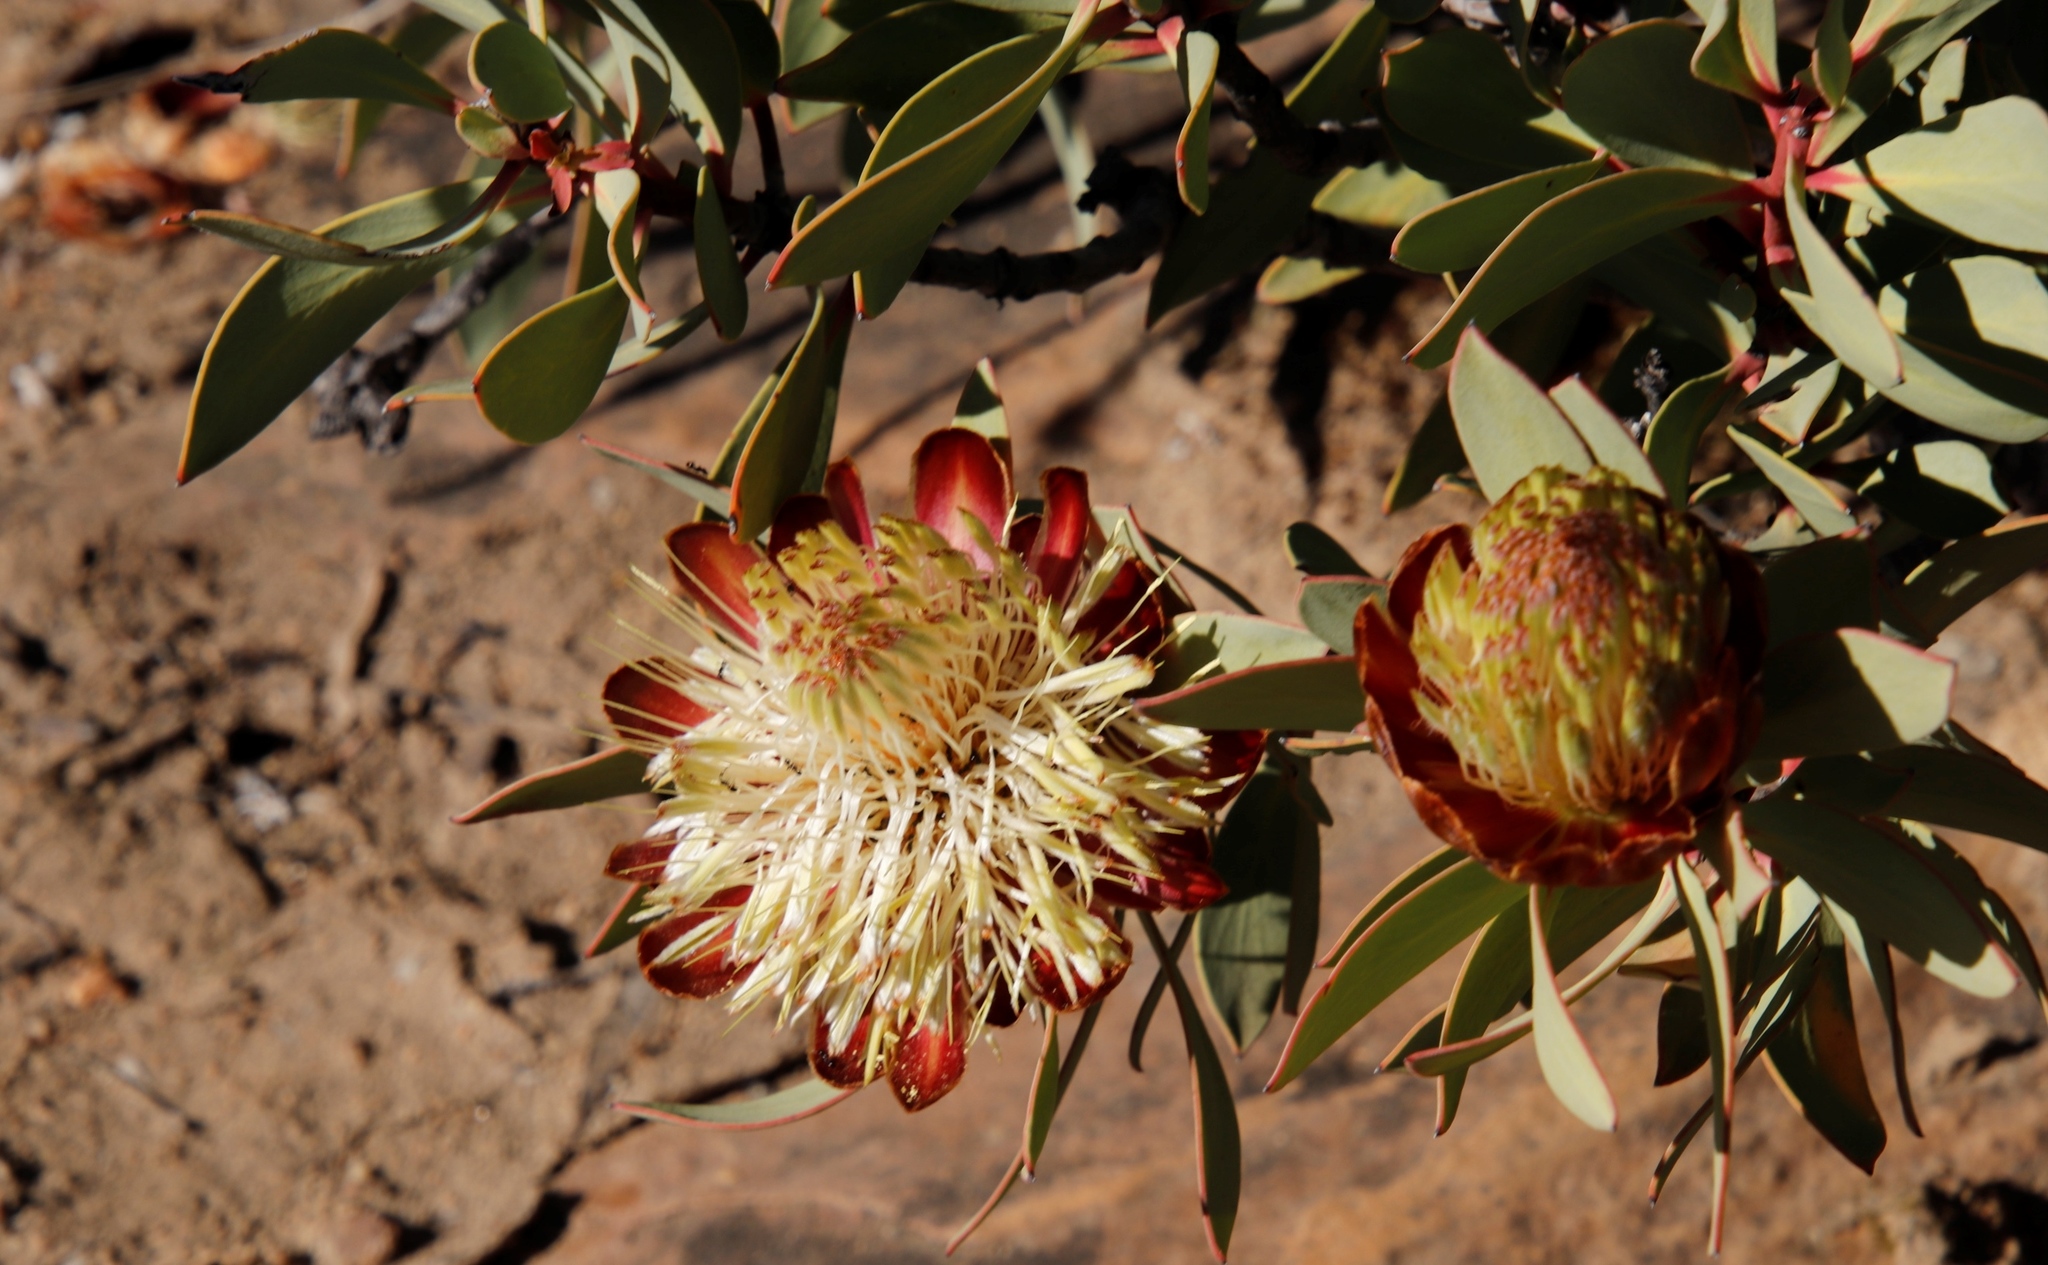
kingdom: Plantae
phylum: Tracheophyta
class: Magnoliopsida
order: Proteales
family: Proteaceae
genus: Protea
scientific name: Protea glabra
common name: Chestnut sugarbush
